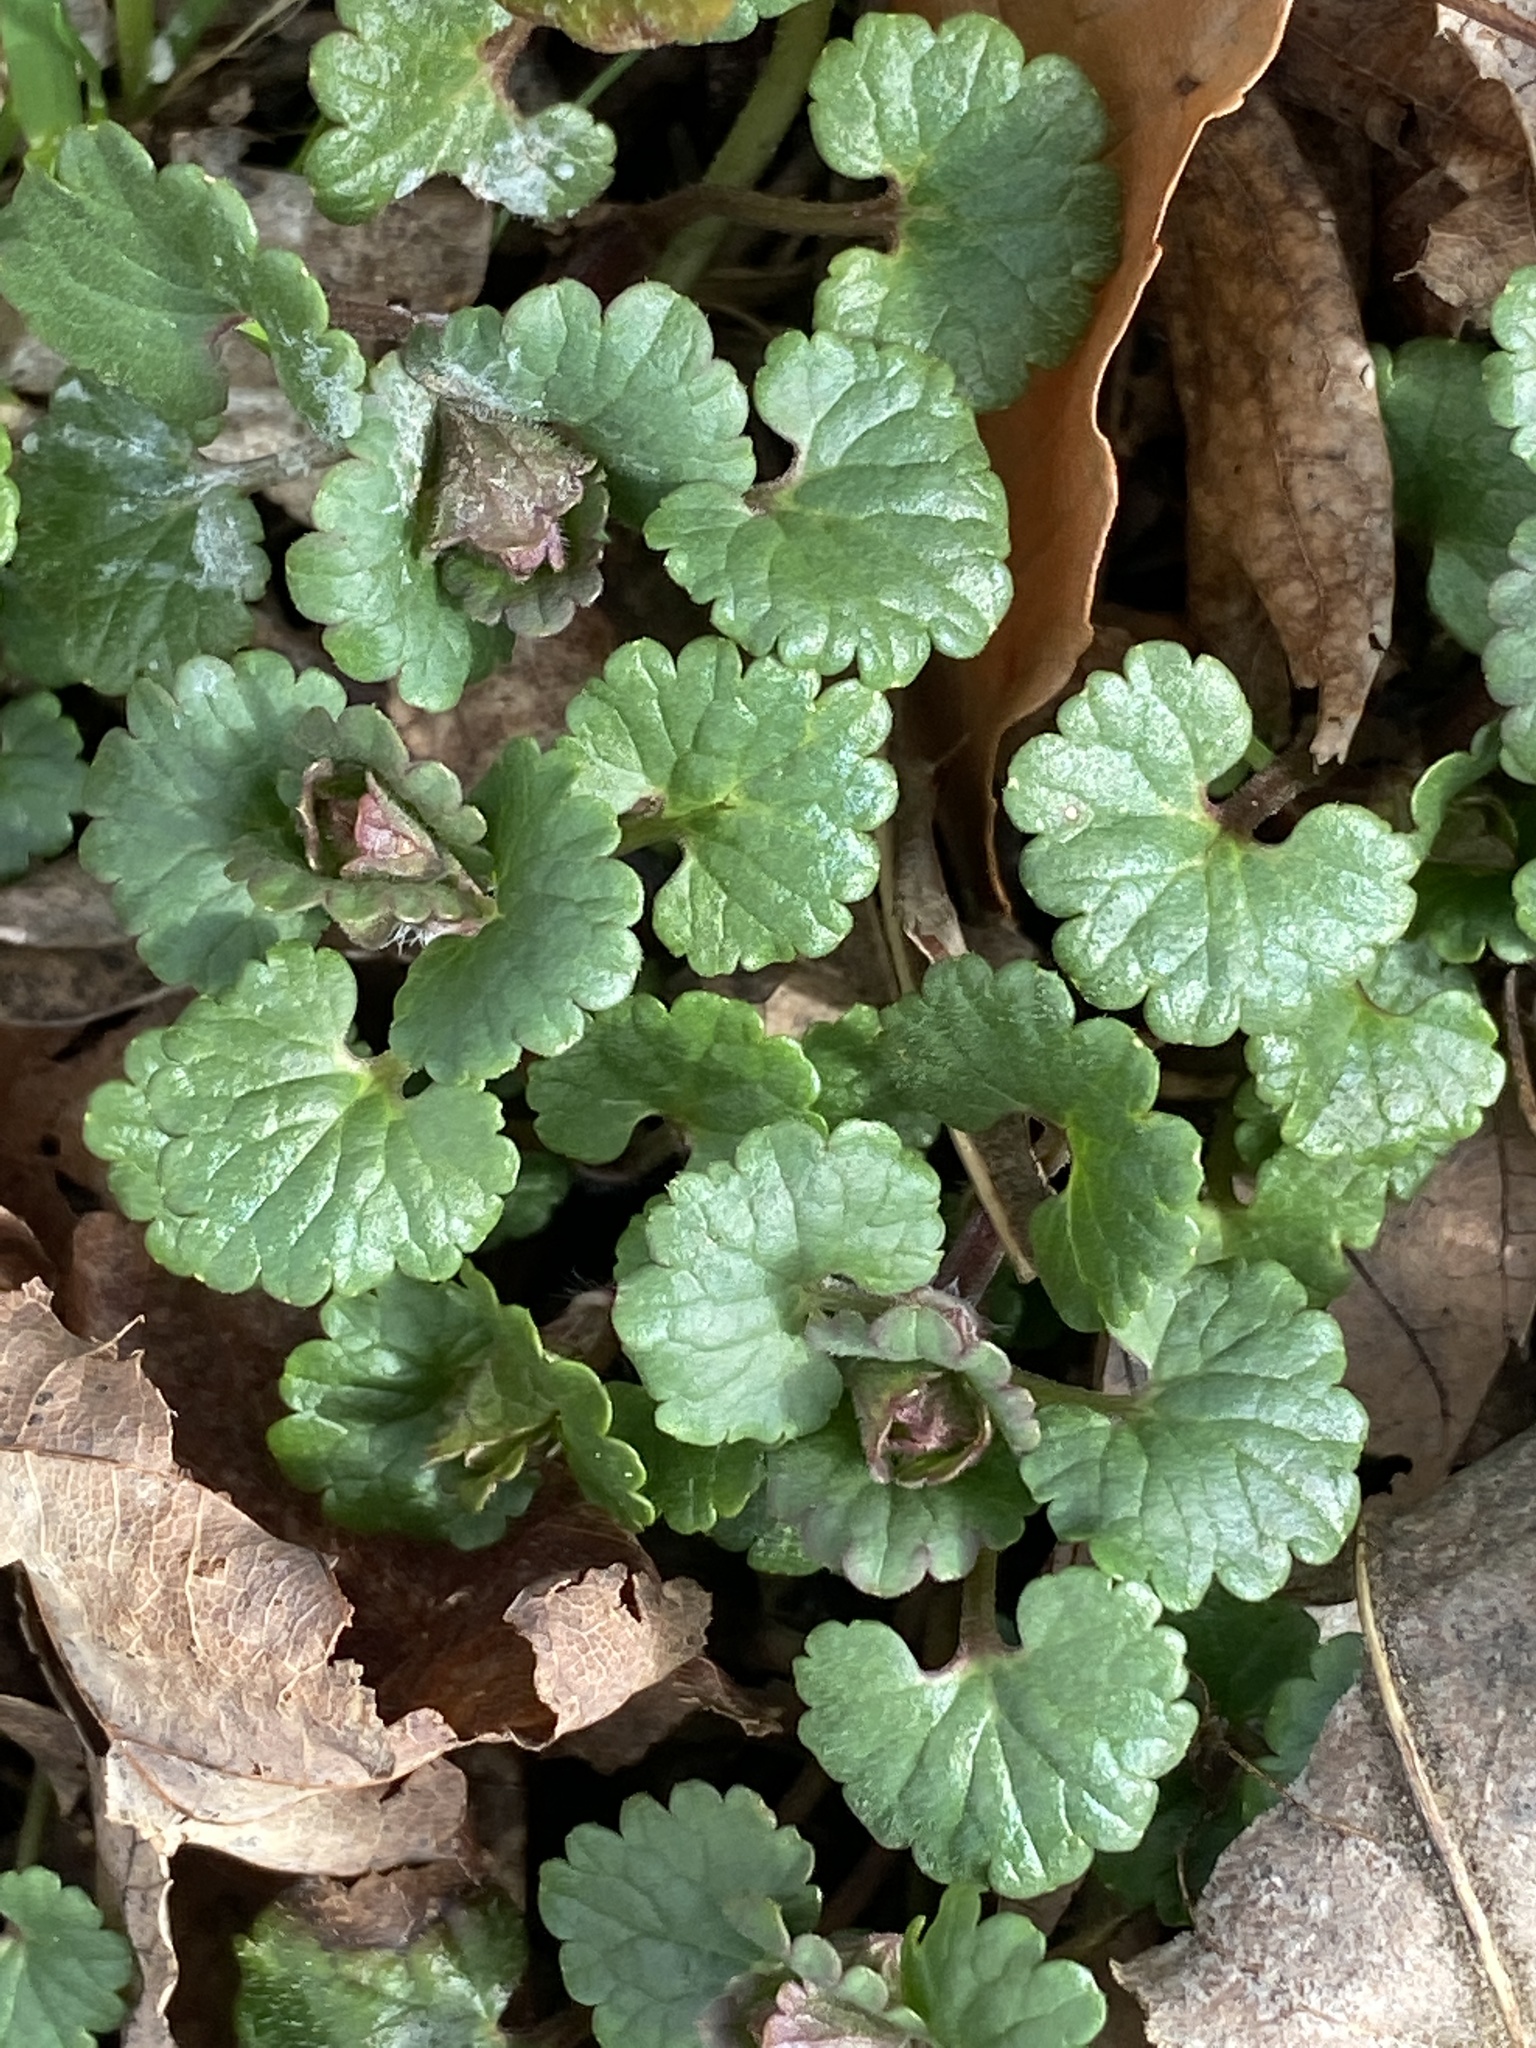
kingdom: Plantae
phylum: Tracheophyta
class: Magnoliopsida
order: Lamiales
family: Lamiaceae
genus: Glechoma
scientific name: Glechoma hederacea
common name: Ground ivy
